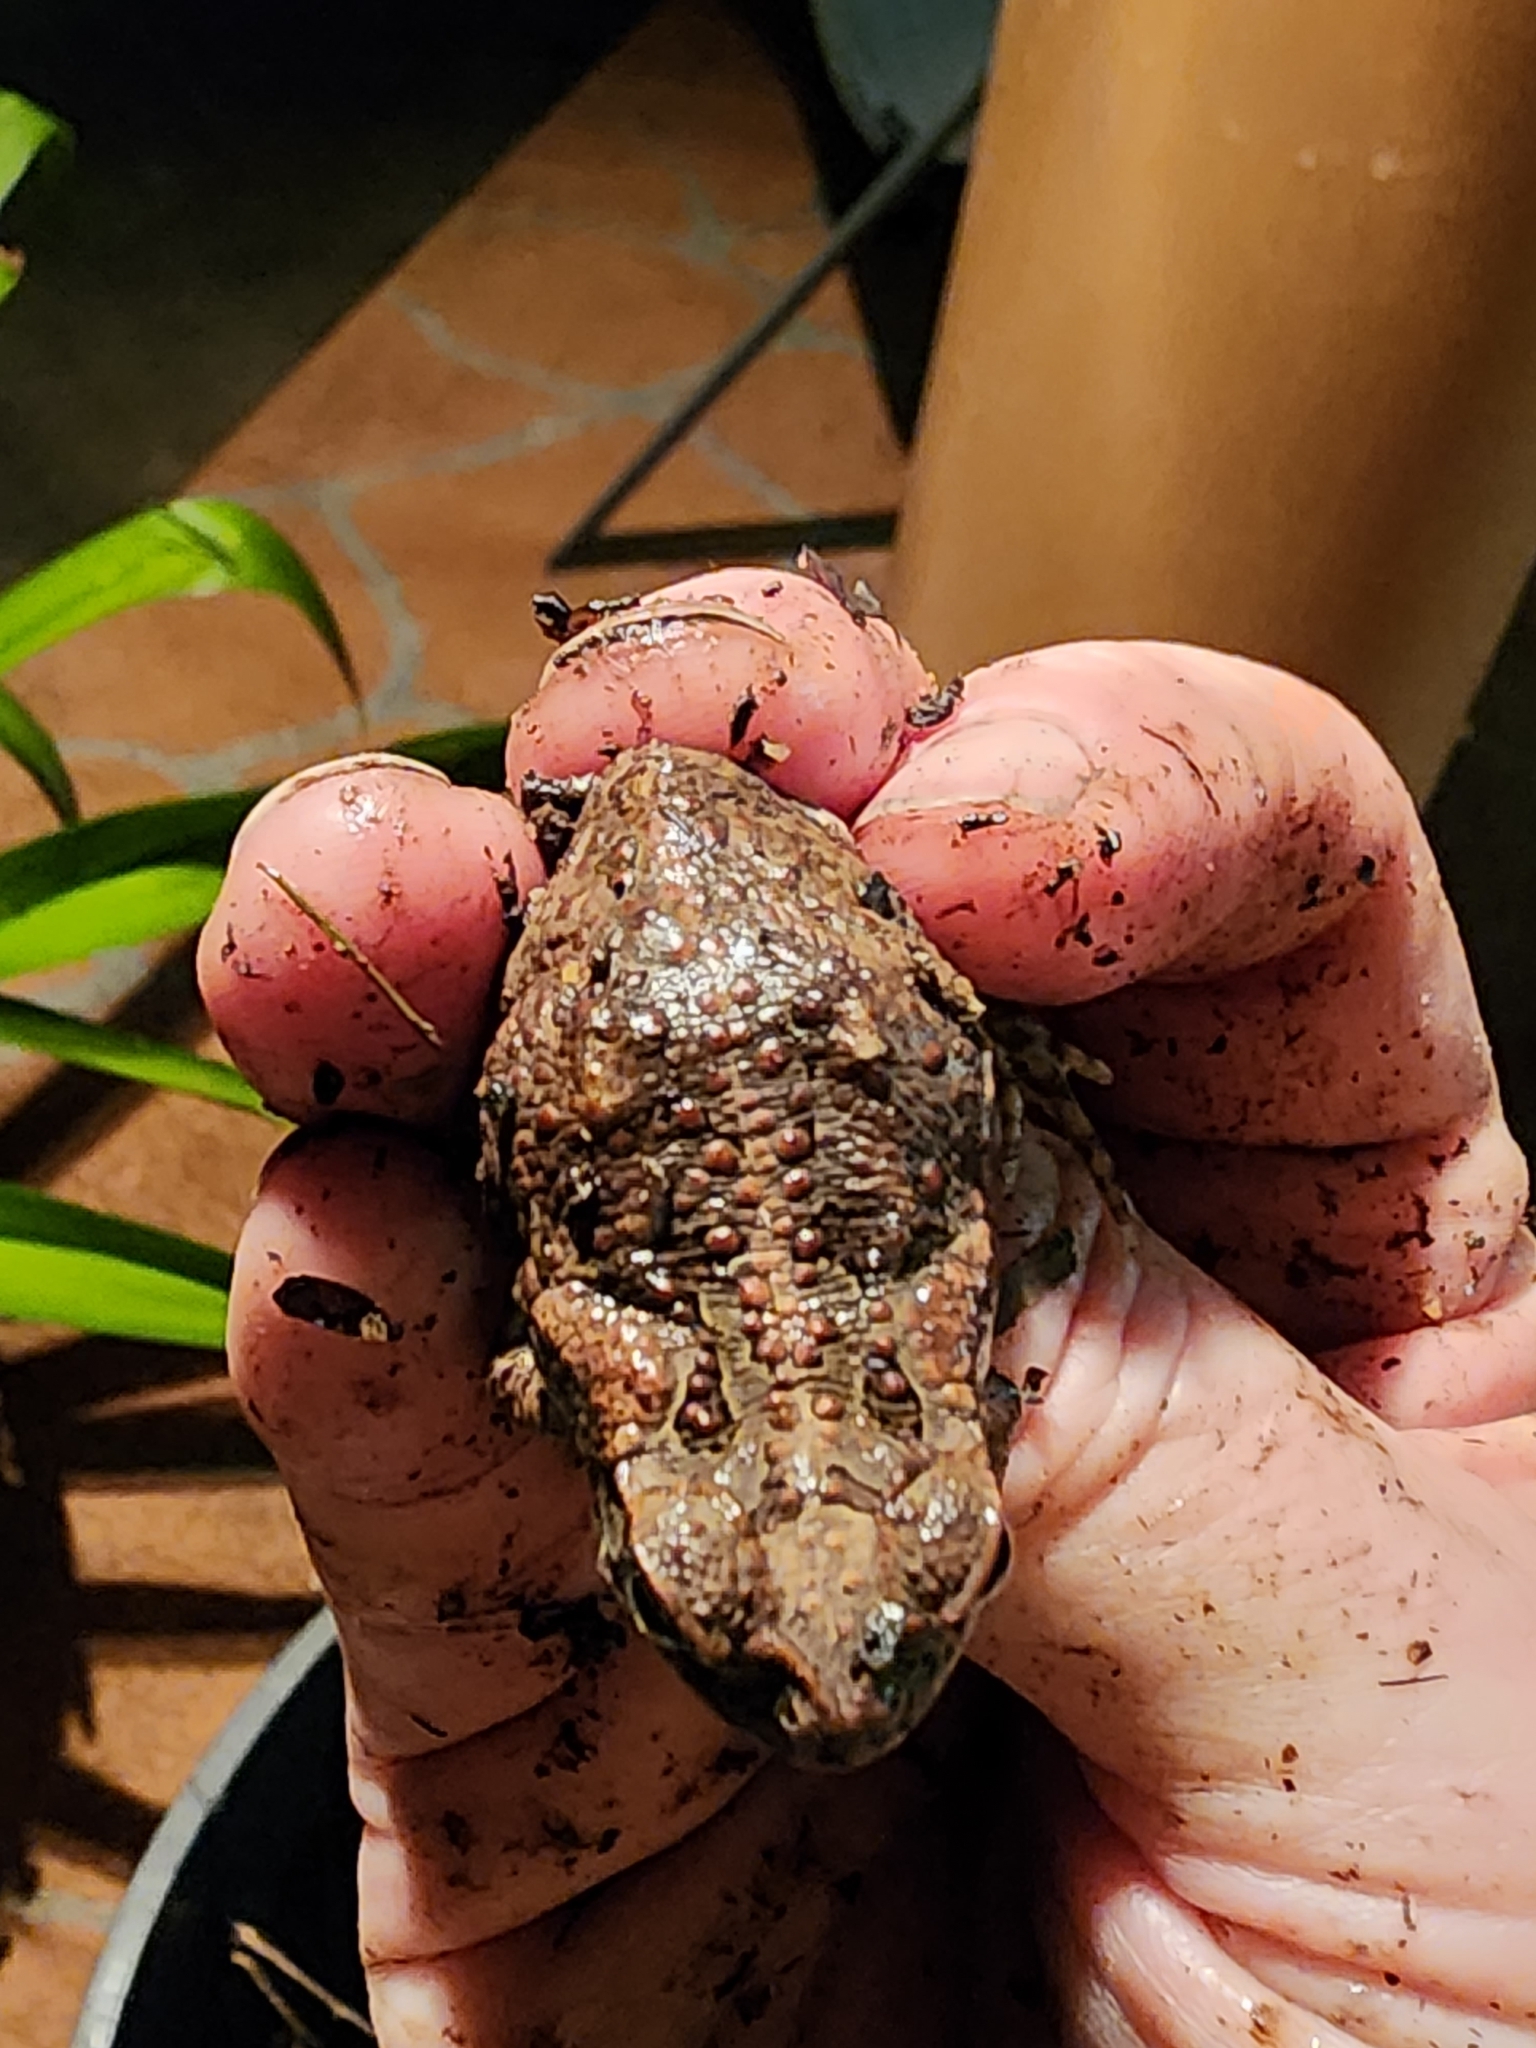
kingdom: Animalia
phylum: Chordata
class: Amphibia
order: Anura
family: Bufonidae
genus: Rhinella
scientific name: Rhinella marina
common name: Cane toad
